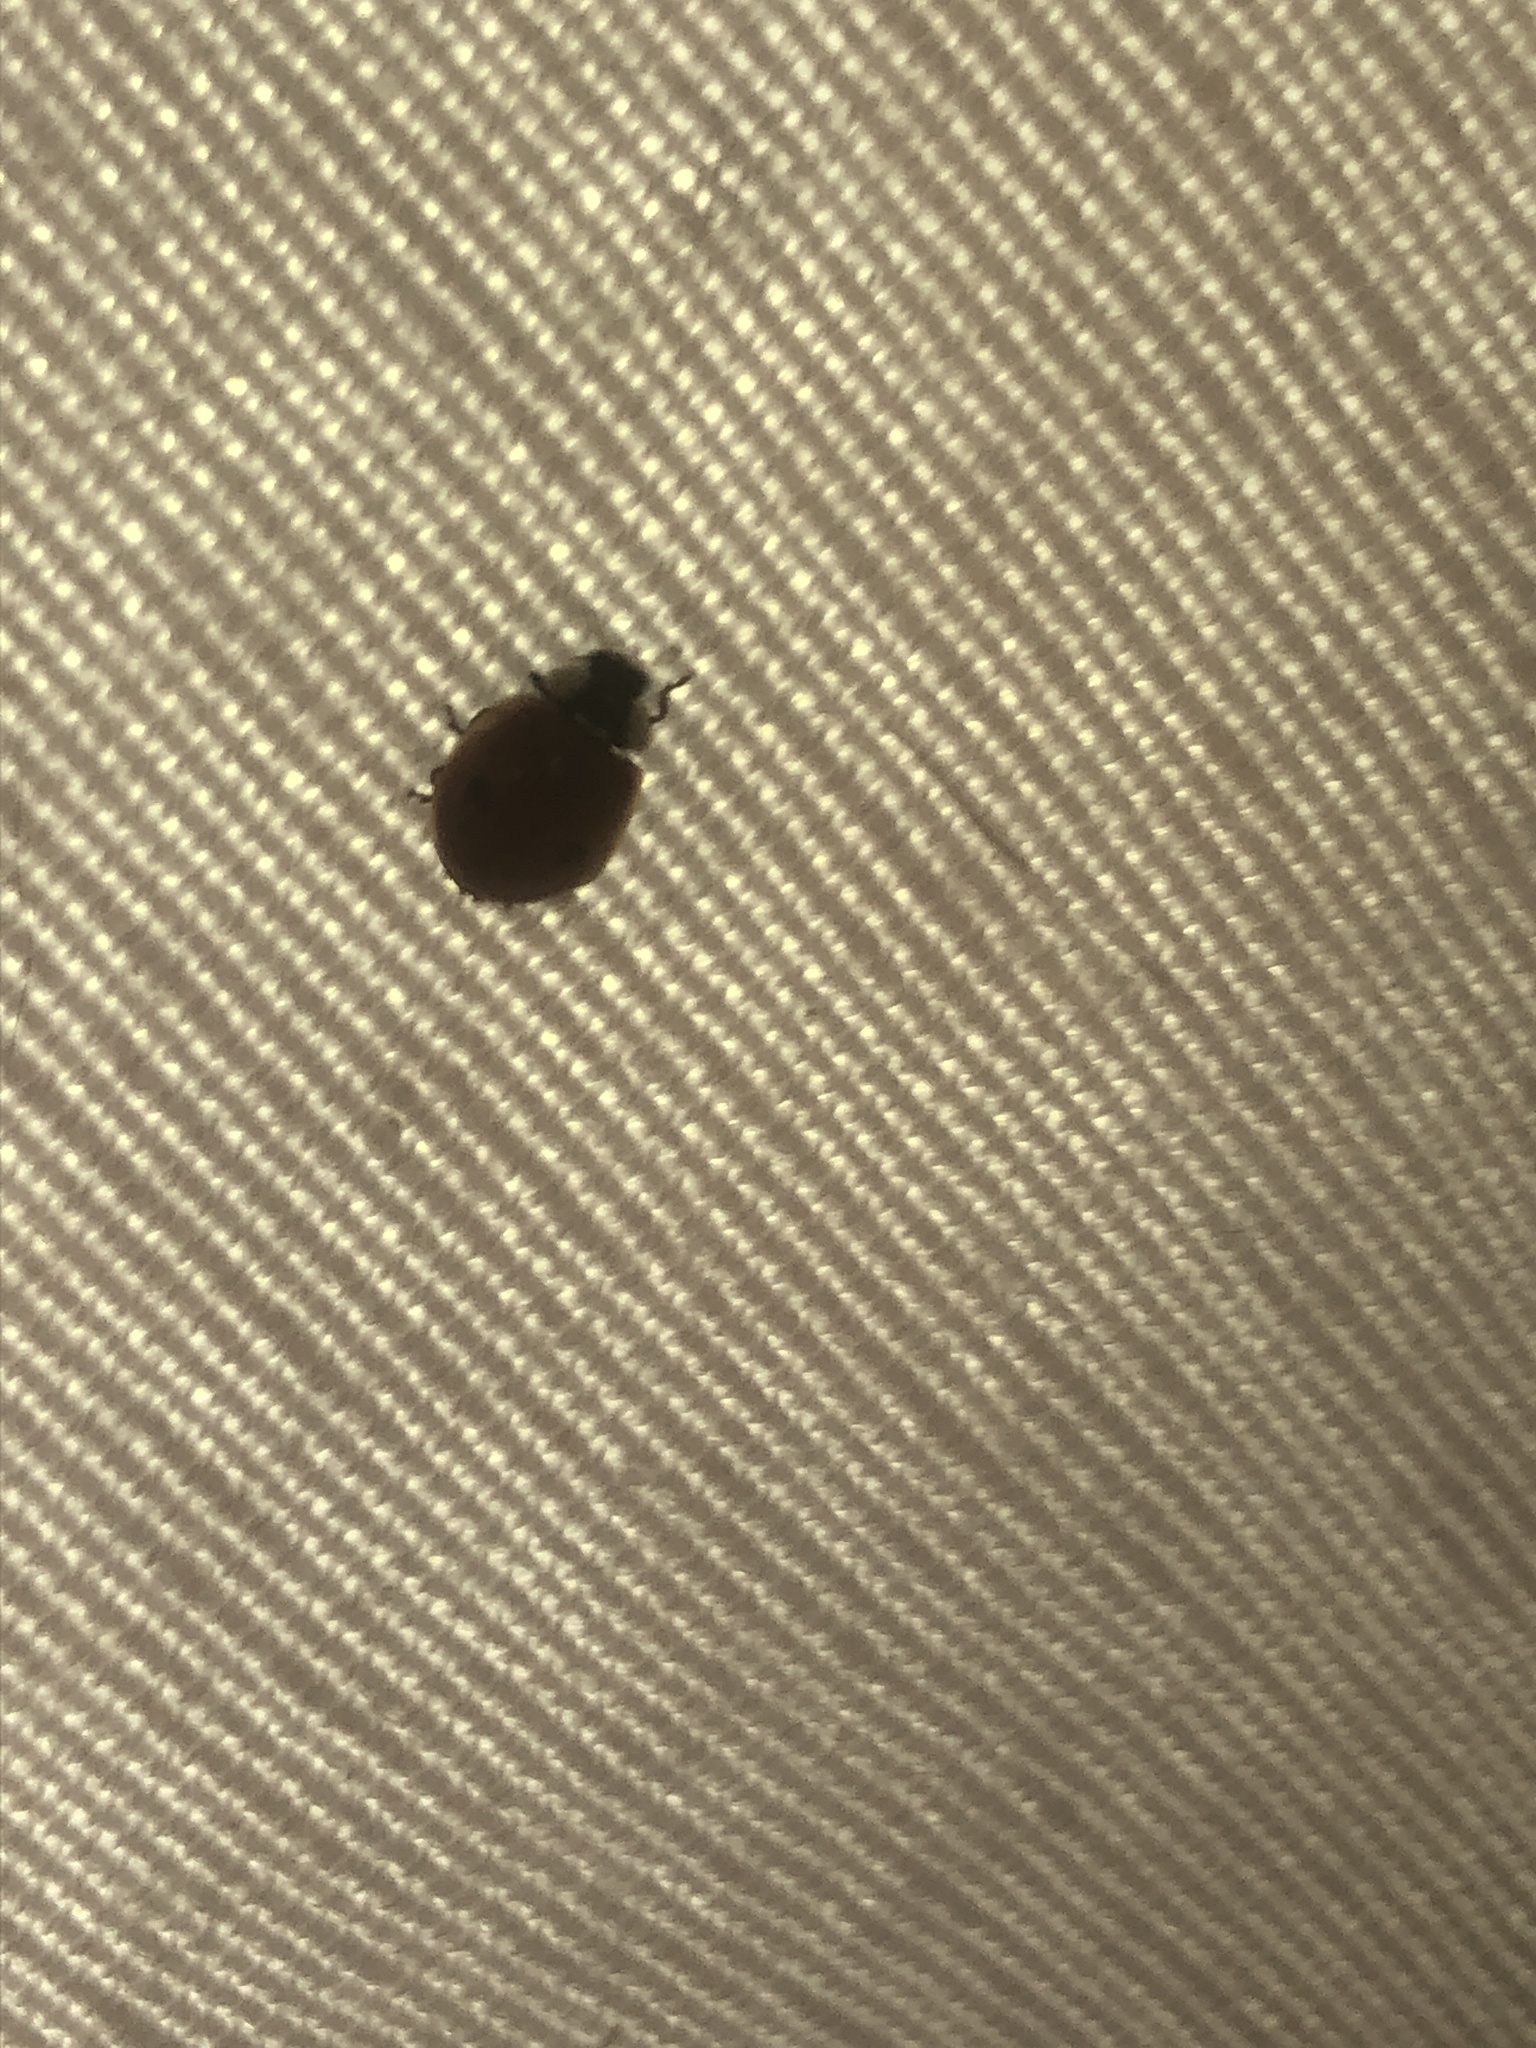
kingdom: Animalia
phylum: Arthropoda
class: Insecta
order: Coleoptera
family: Coccinellidae
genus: Adalia
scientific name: Adalia bipunctata
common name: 2-spot ladybird
